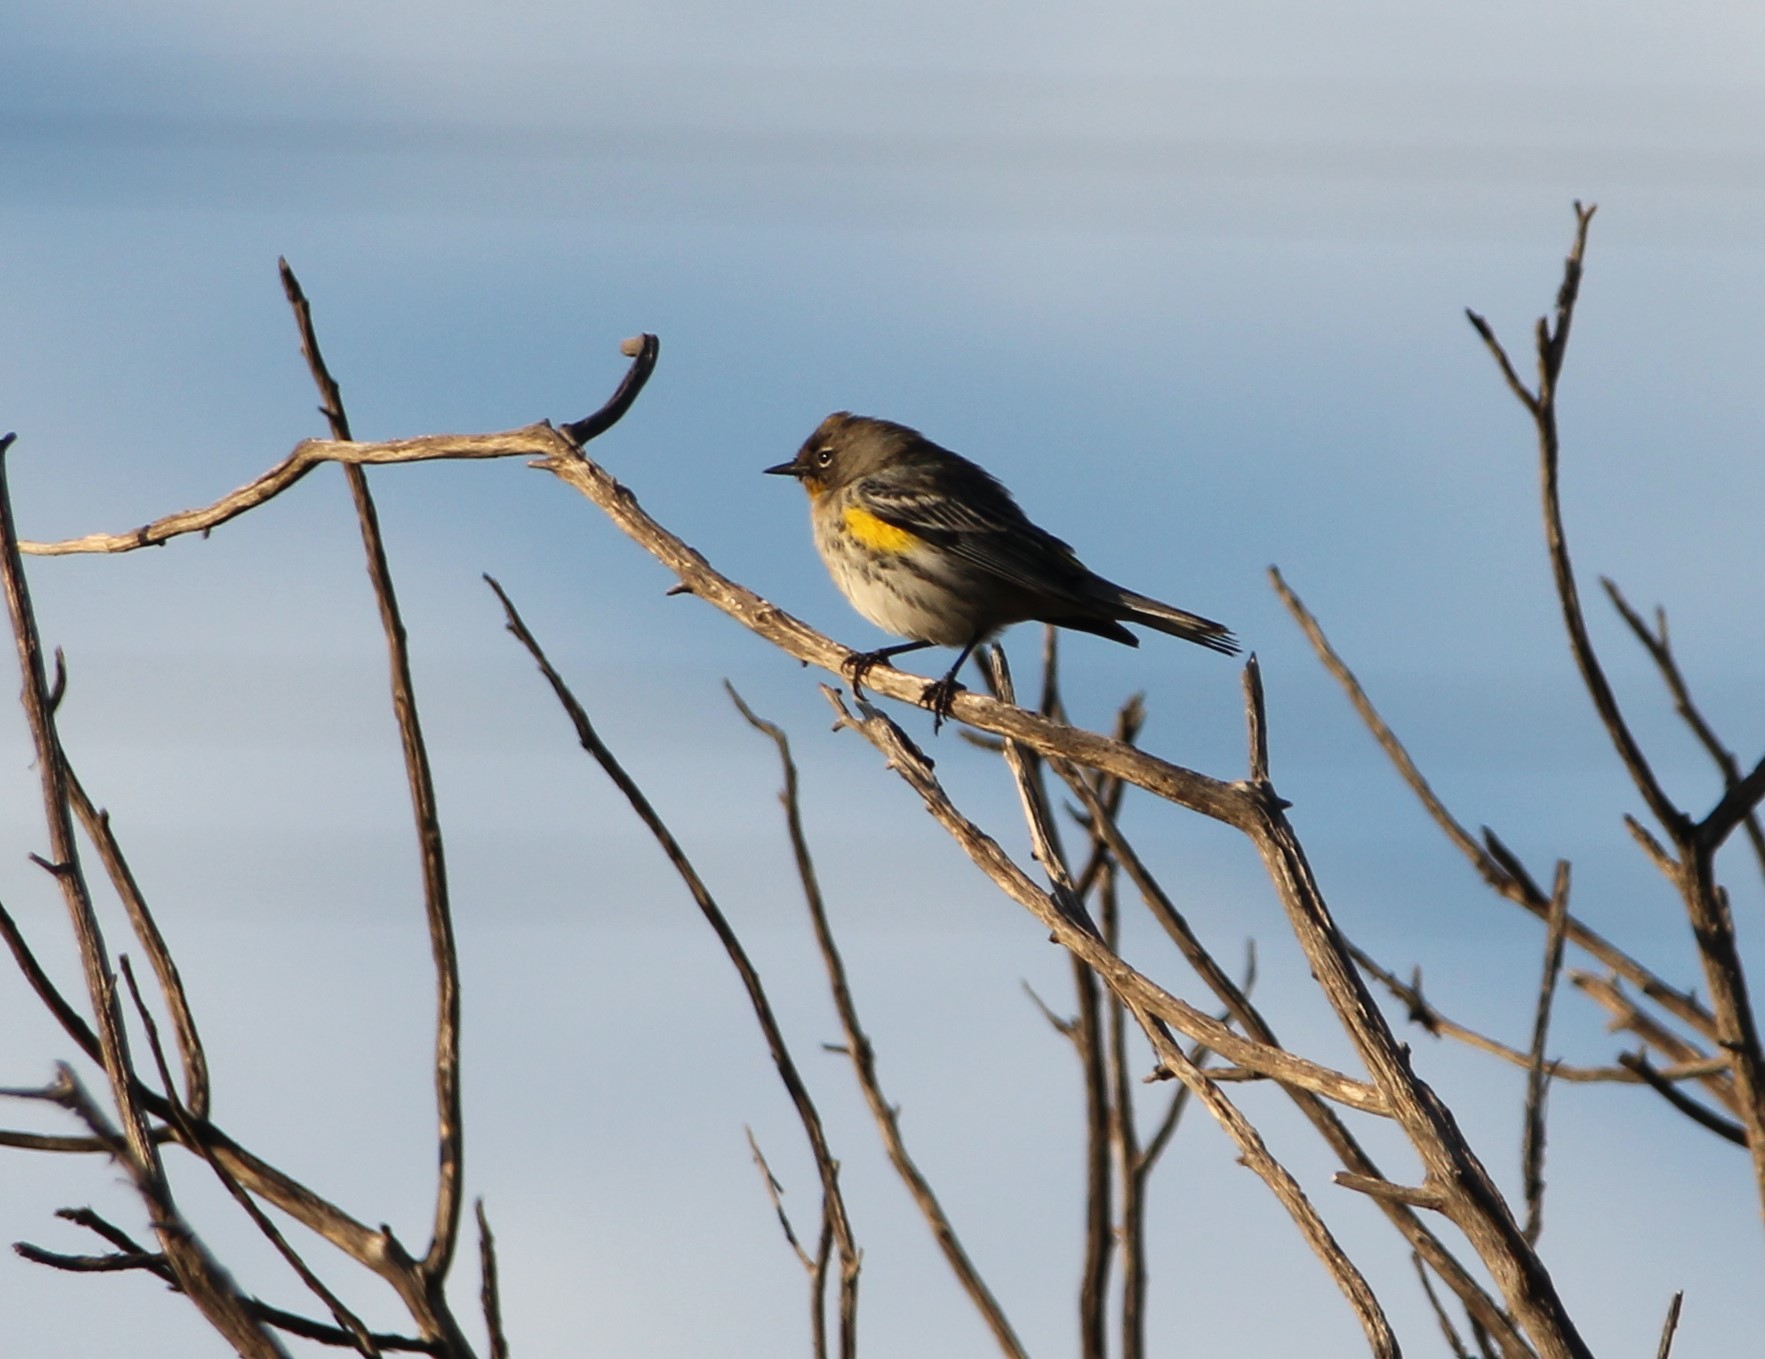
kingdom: Animalia
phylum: Chordata
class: Aves
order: Passeriformes
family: Parulidae
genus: Setophaga
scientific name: Setophaga coronata
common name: Myrtle warbler
